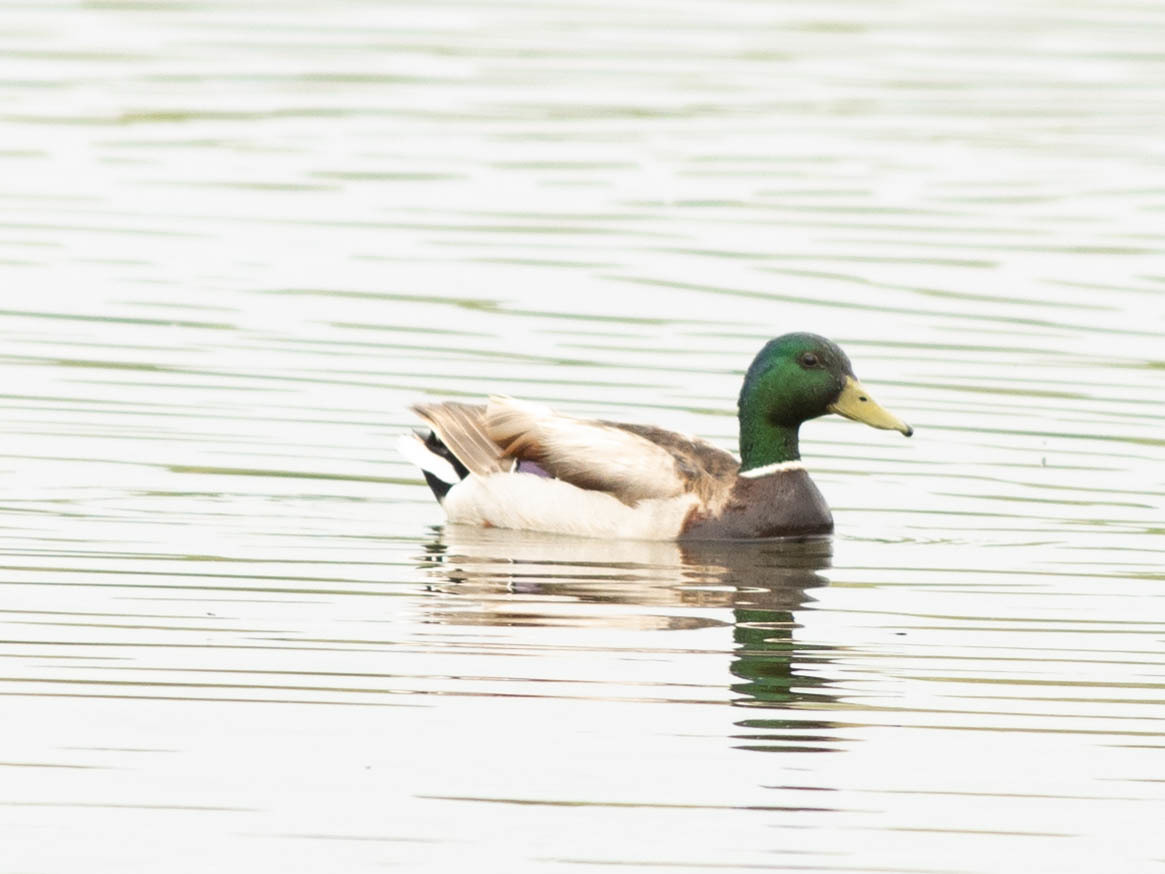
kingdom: Animalia
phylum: Chordata
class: Aves
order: Anseriformes
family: Anatidae
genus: Anas
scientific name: Anas platyrhynchos
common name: Mallard
